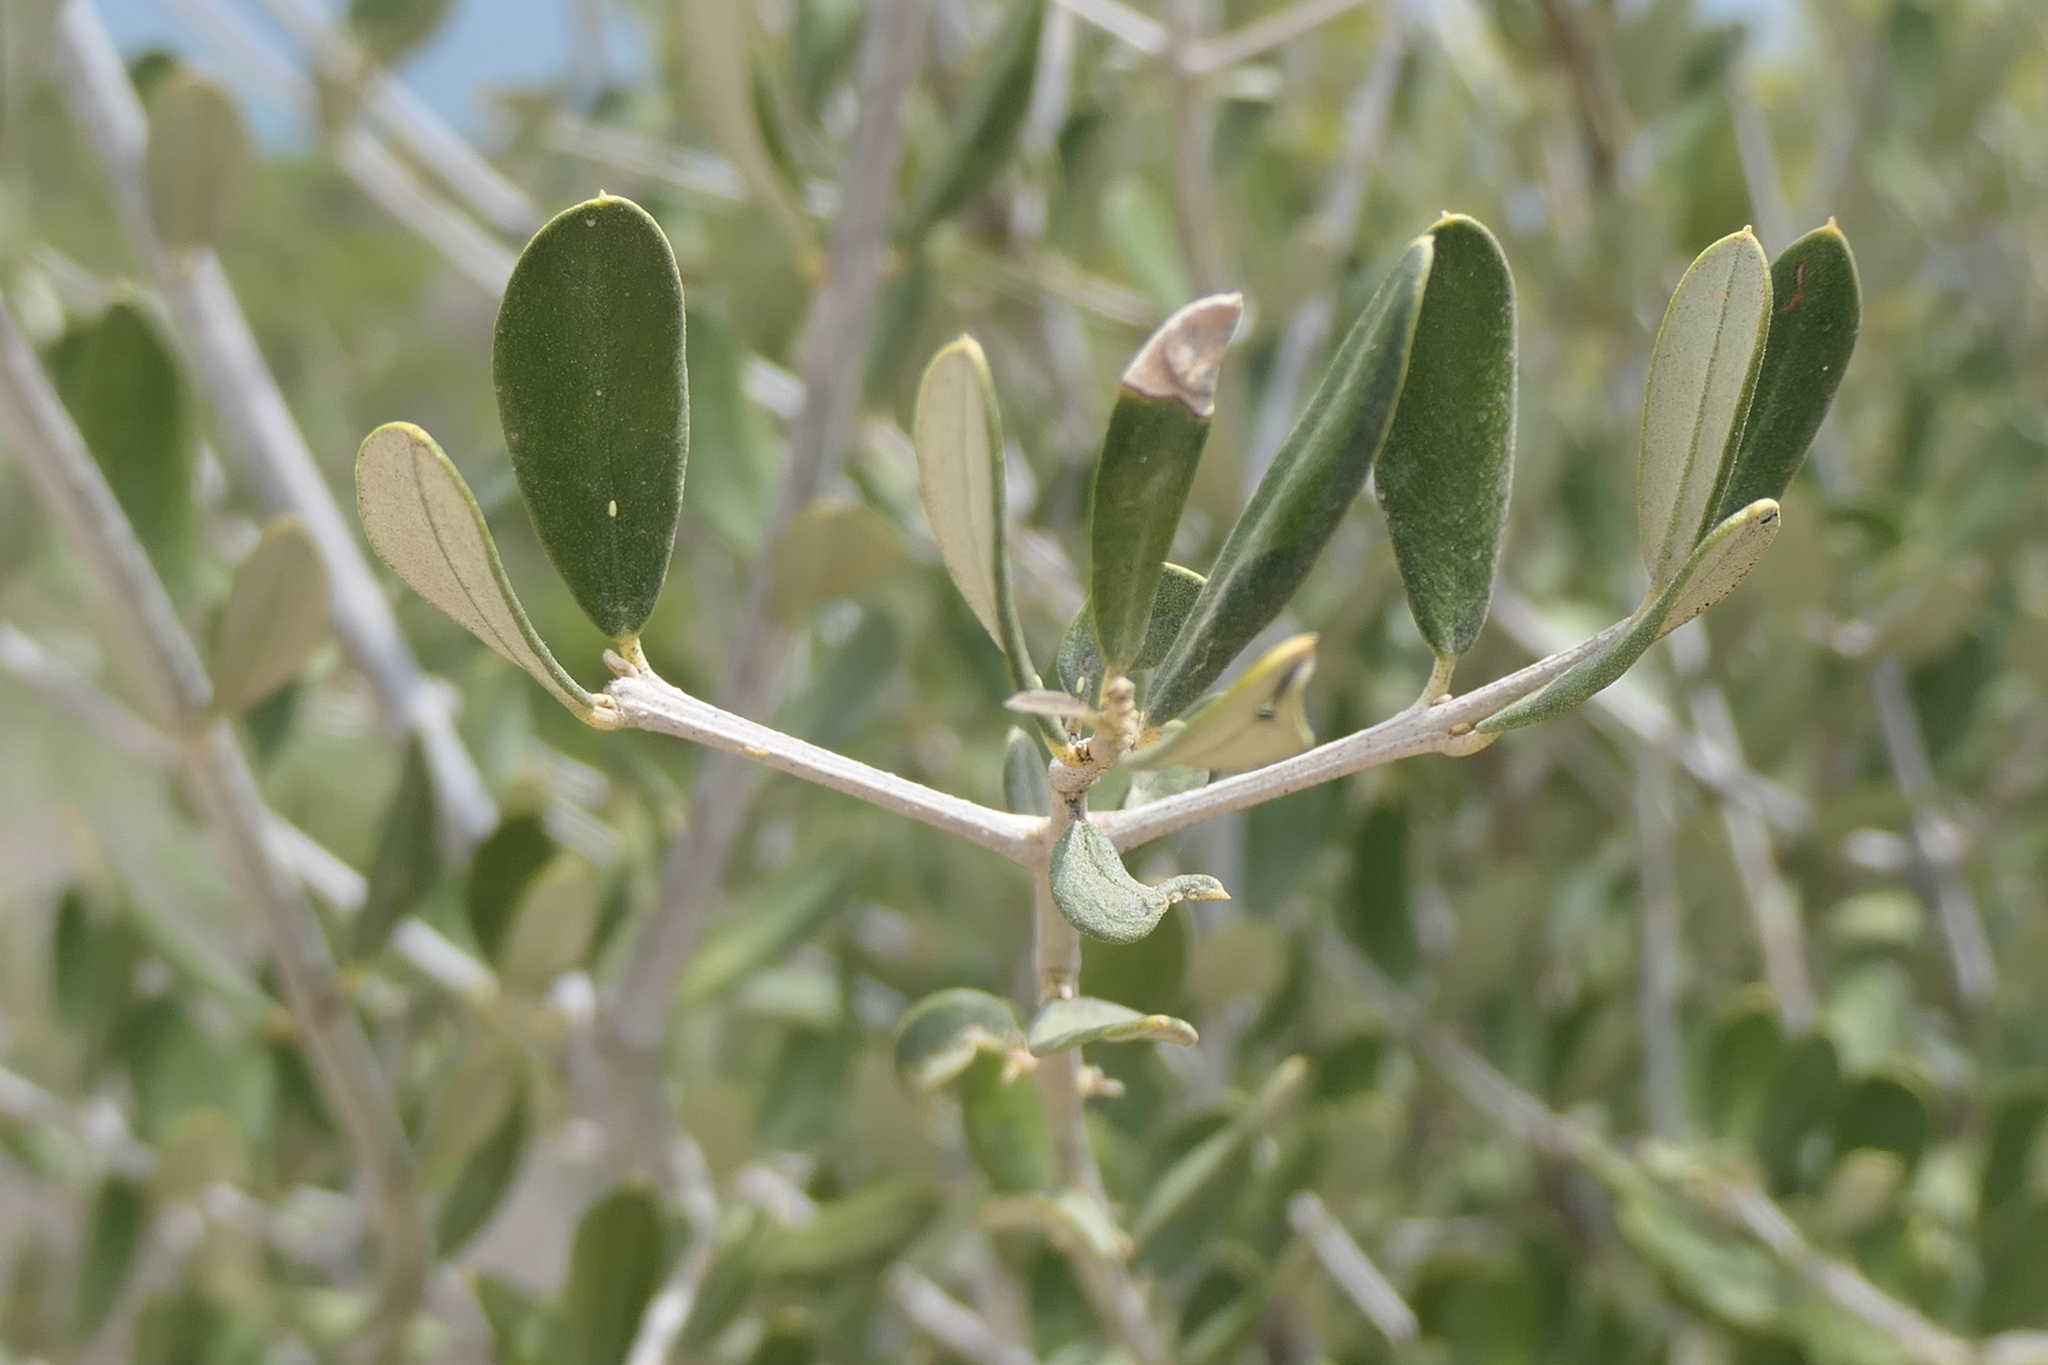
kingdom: Plantae
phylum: Tracheophyta
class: Magnoliopsida
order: Lamiales
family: Oleaceae
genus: Olea
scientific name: Olea europaea
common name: Olive
